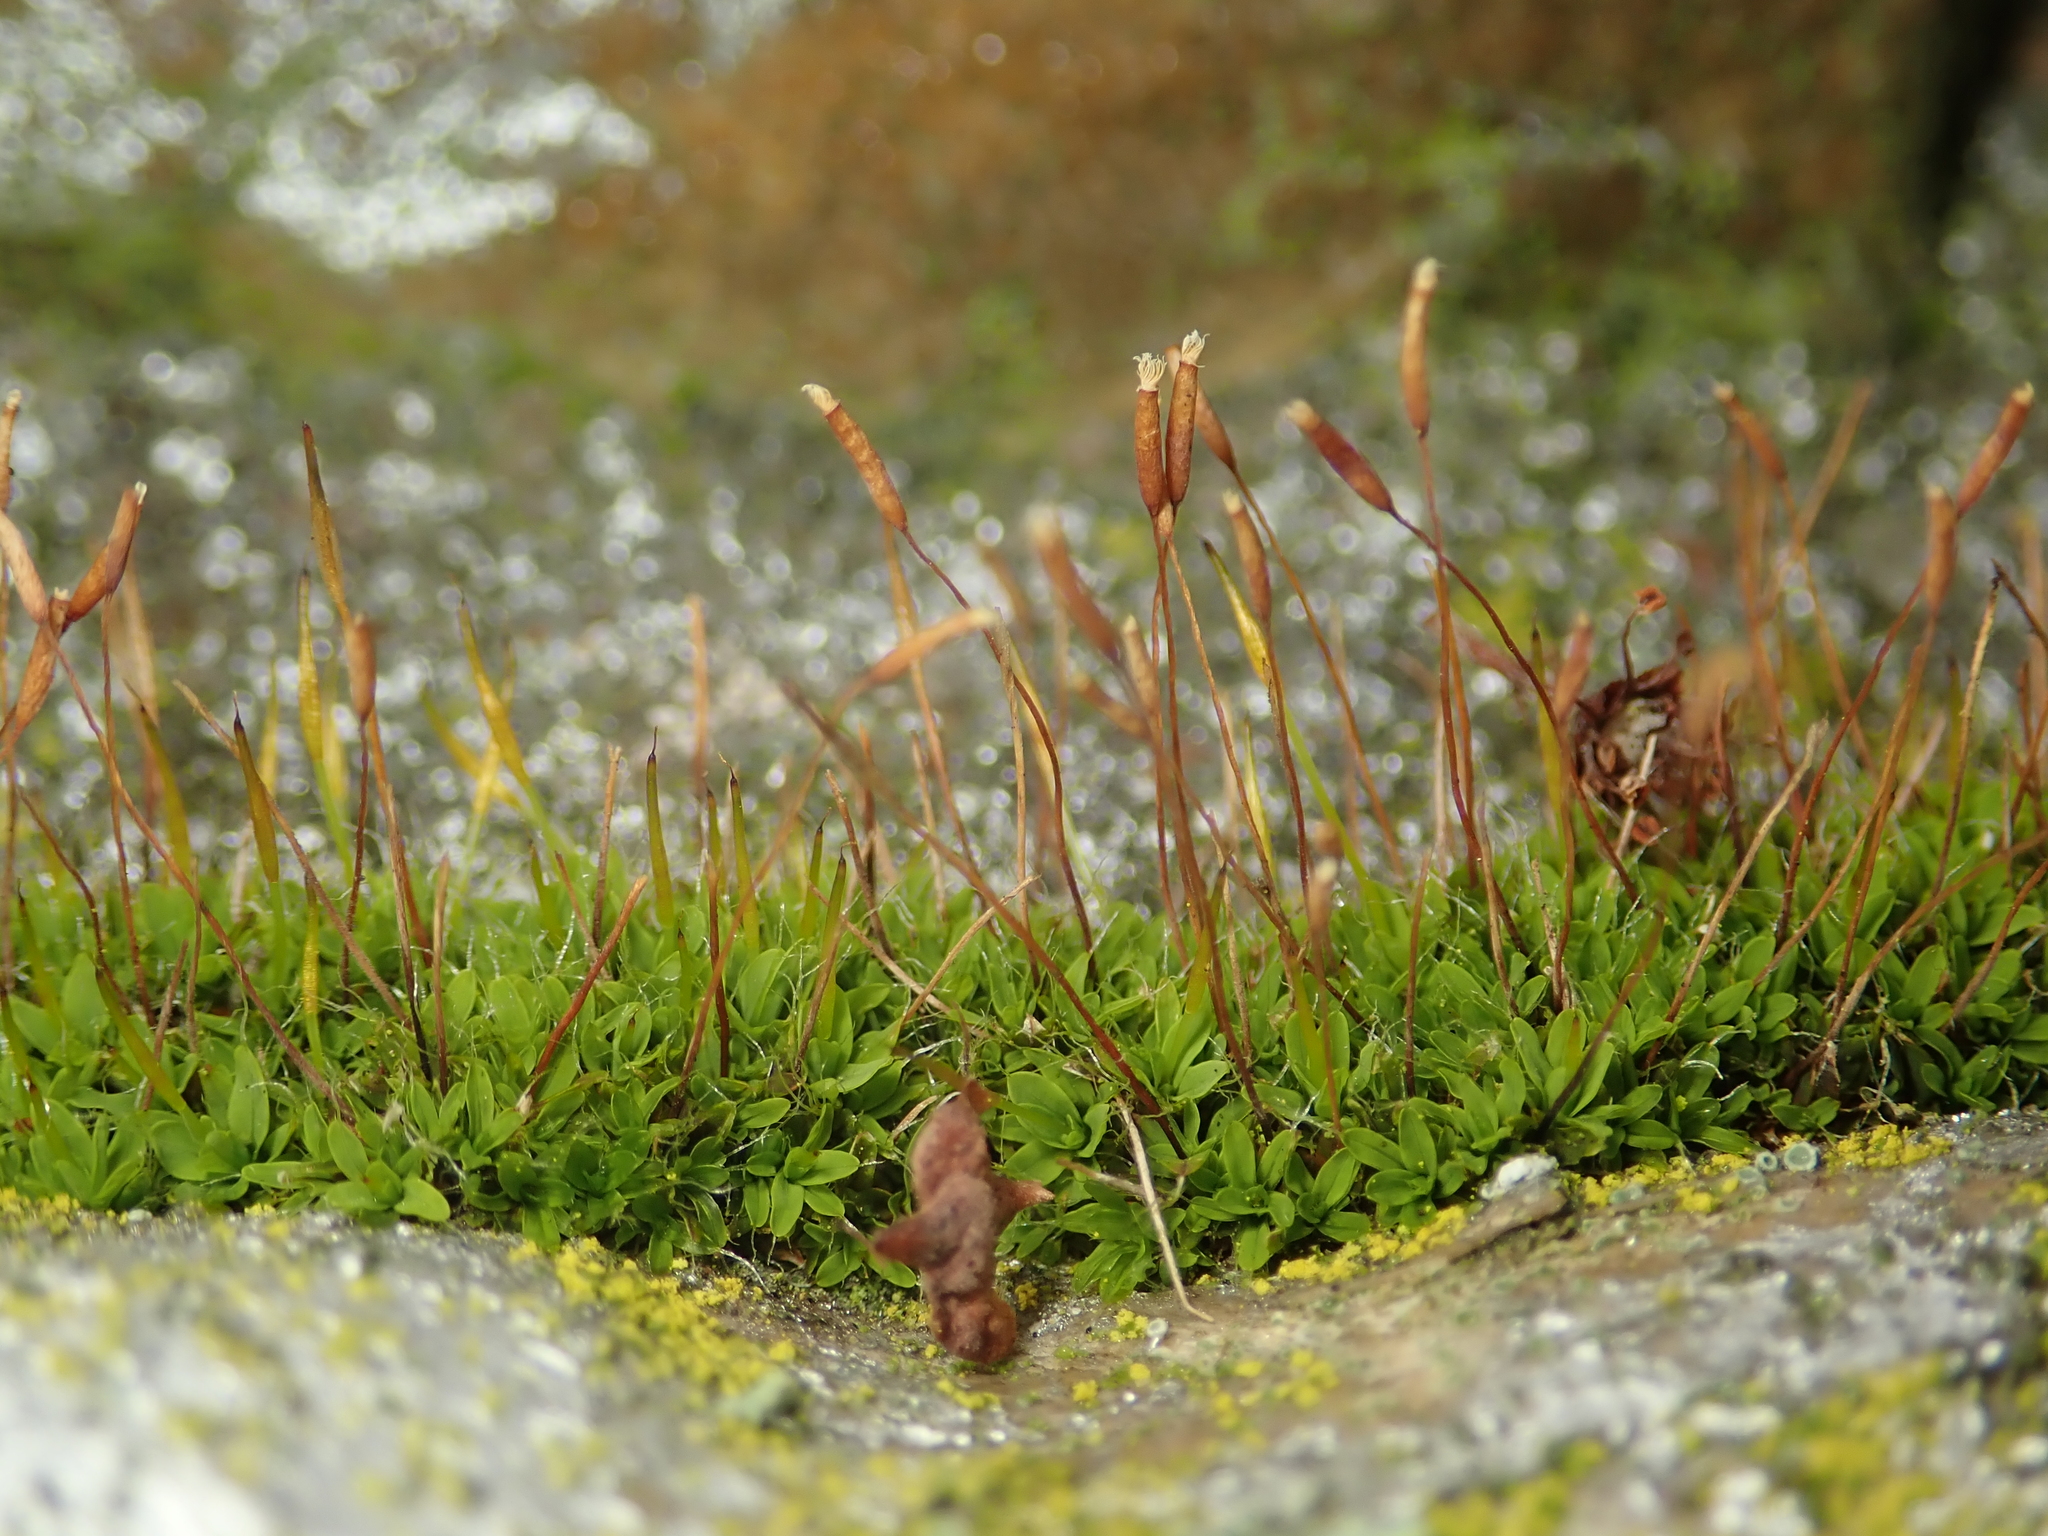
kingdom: Plantae
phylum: Bryophyta
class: Bryopsida
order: Pottiales
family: Pottiaceae
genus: Tortula
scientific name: Tortula muralis
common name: Wall screw-moss
